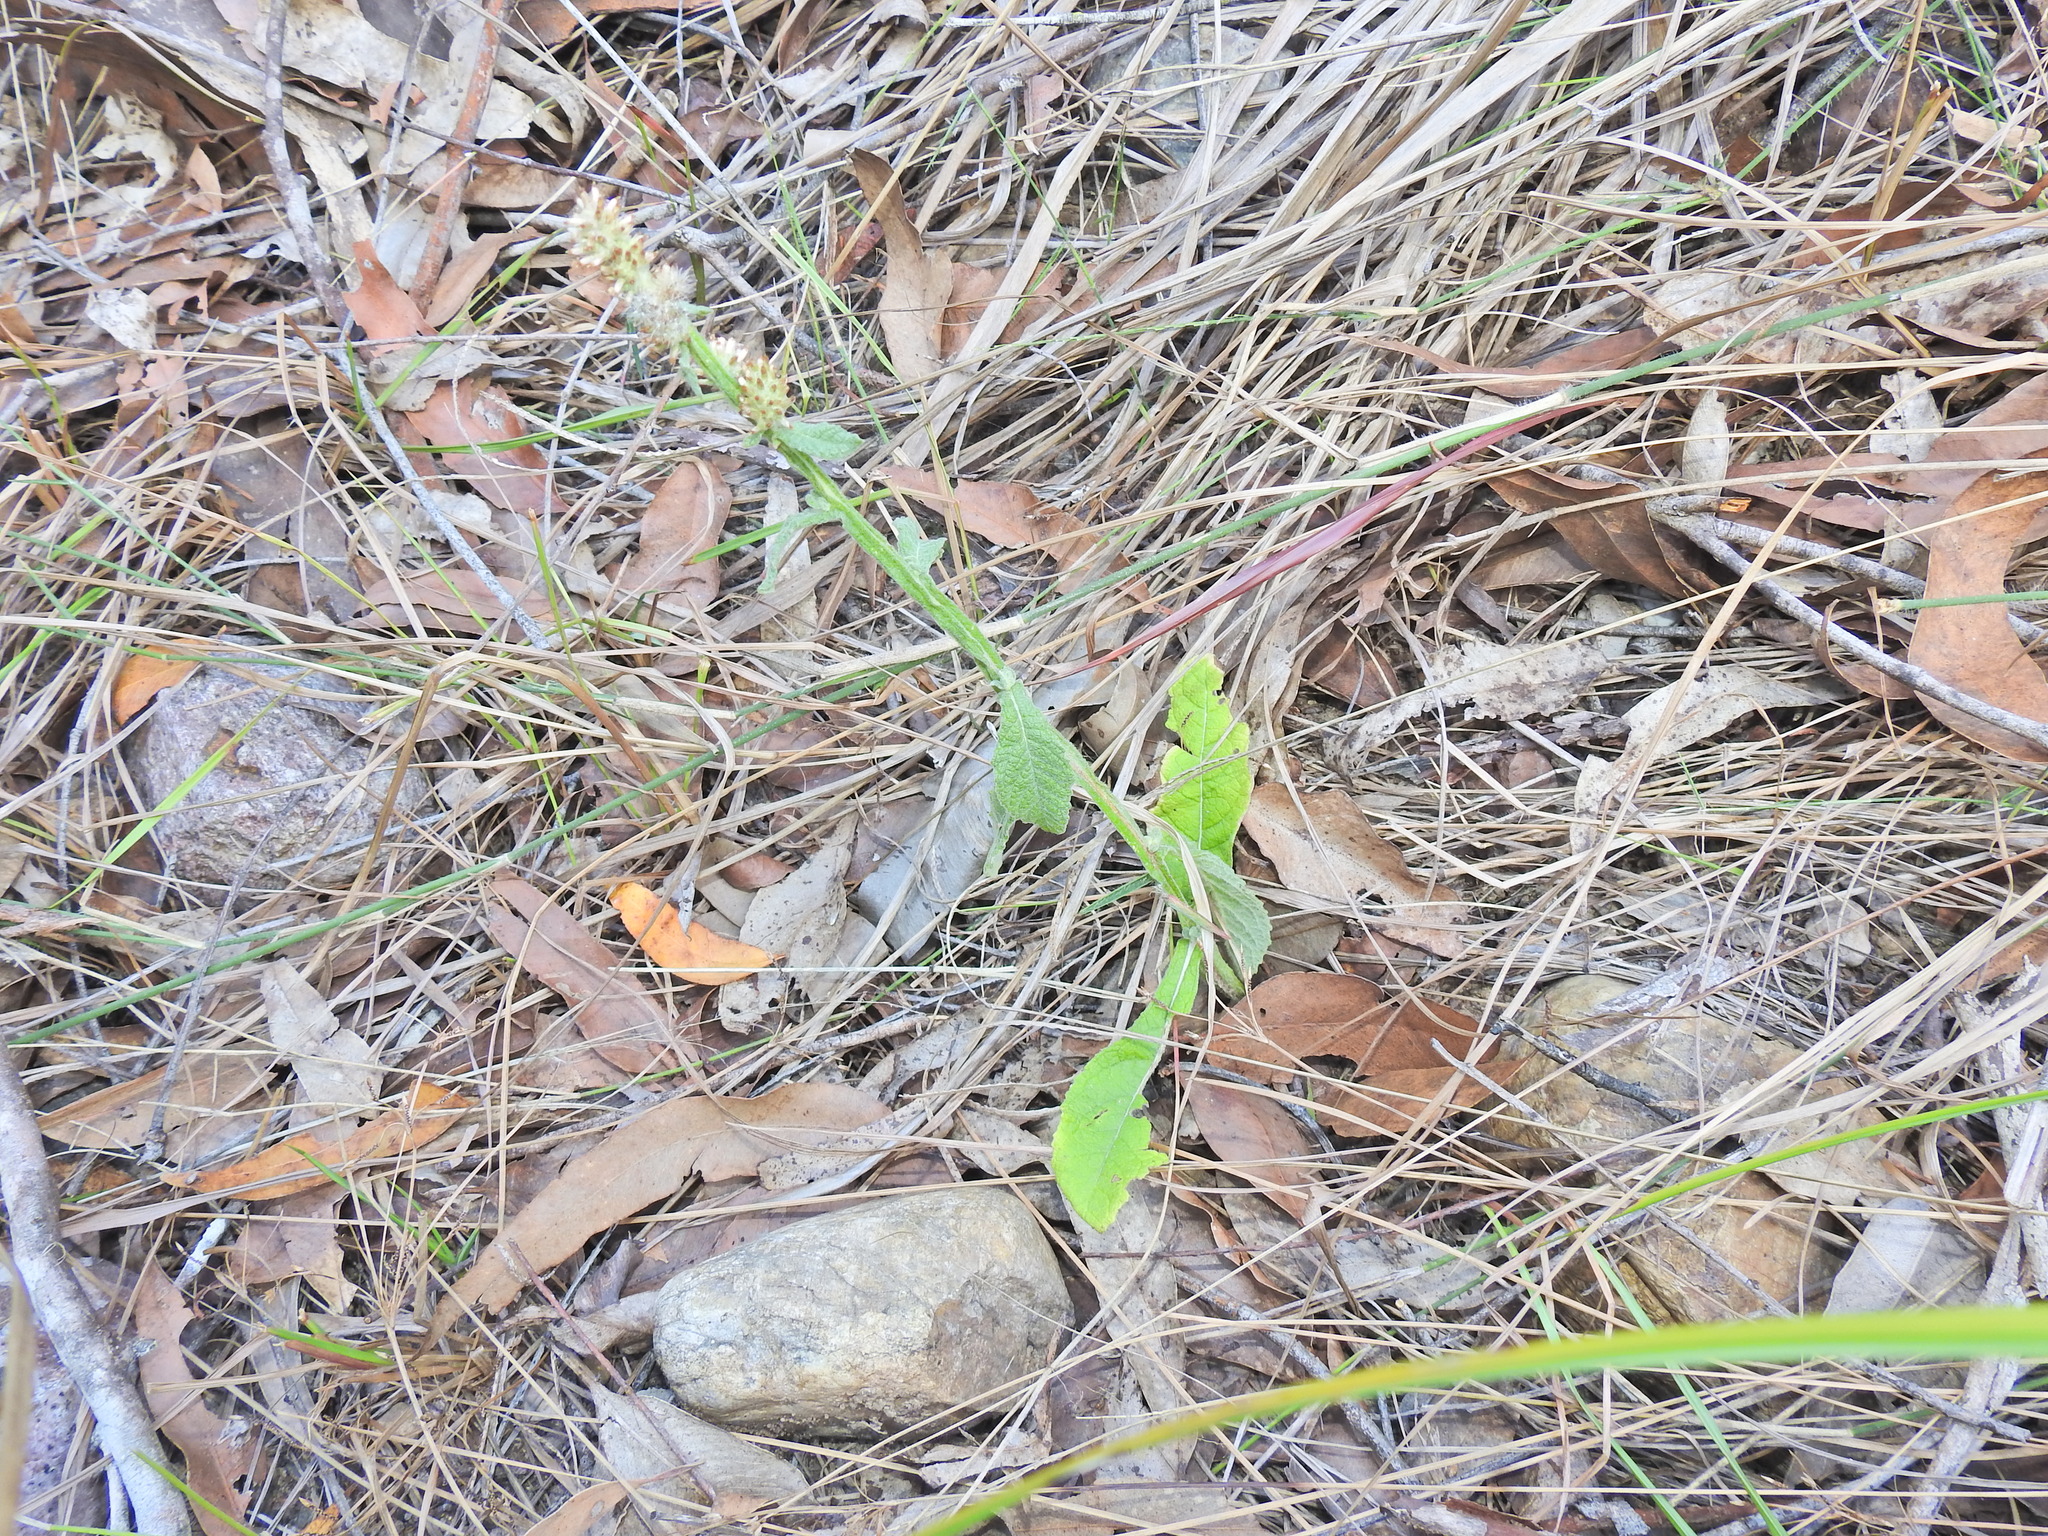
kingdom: Plantae
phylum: Tracheophyta
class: Magnoliopsida
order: Asterales
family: Asteraceae
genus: Pterocaulon
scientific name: Pterocaulon redolens
